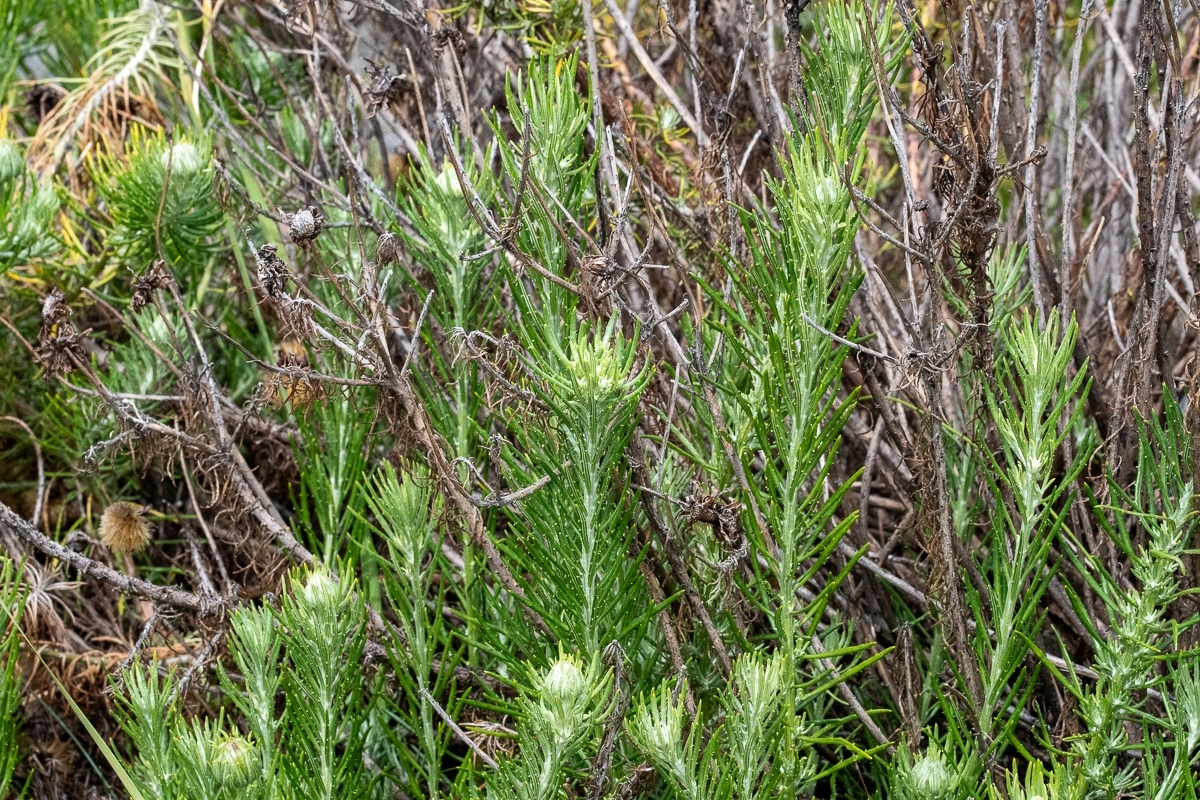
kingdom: Plantae
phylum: Tracheophyta
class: Magnoliopsida
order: Asterales
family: Asteraceae
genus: Heterolepis
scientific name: Heterolepis aliena
